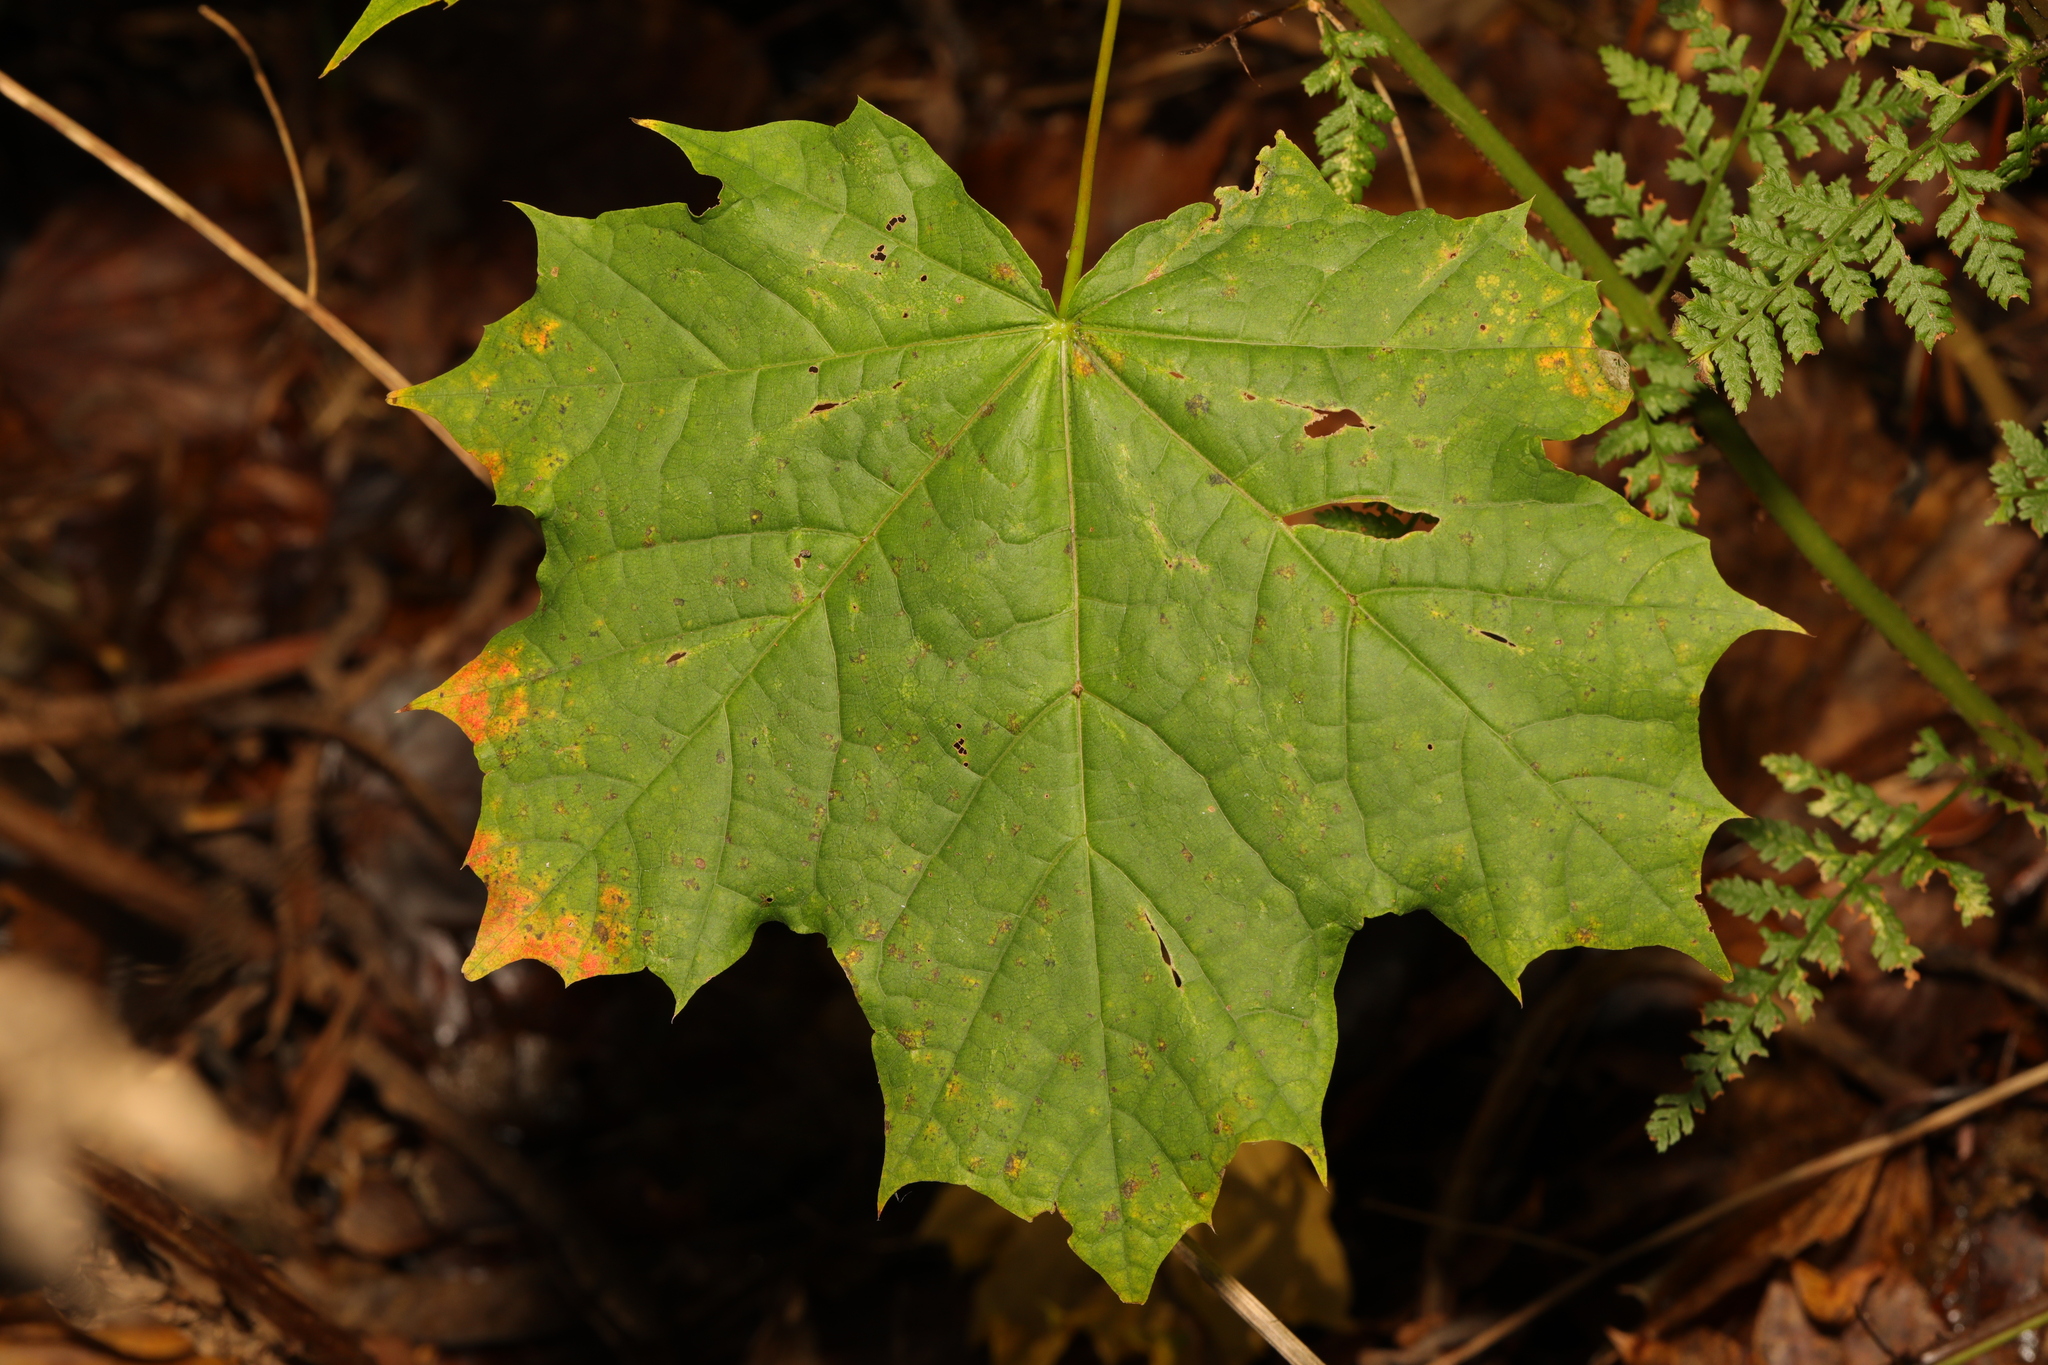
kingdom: Plantae
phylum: Tracheophyta
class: Magnoliopsida
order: Sapindales
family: Sapindaceae
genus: Acer
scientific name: Acer platanoides
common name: Norway maple
